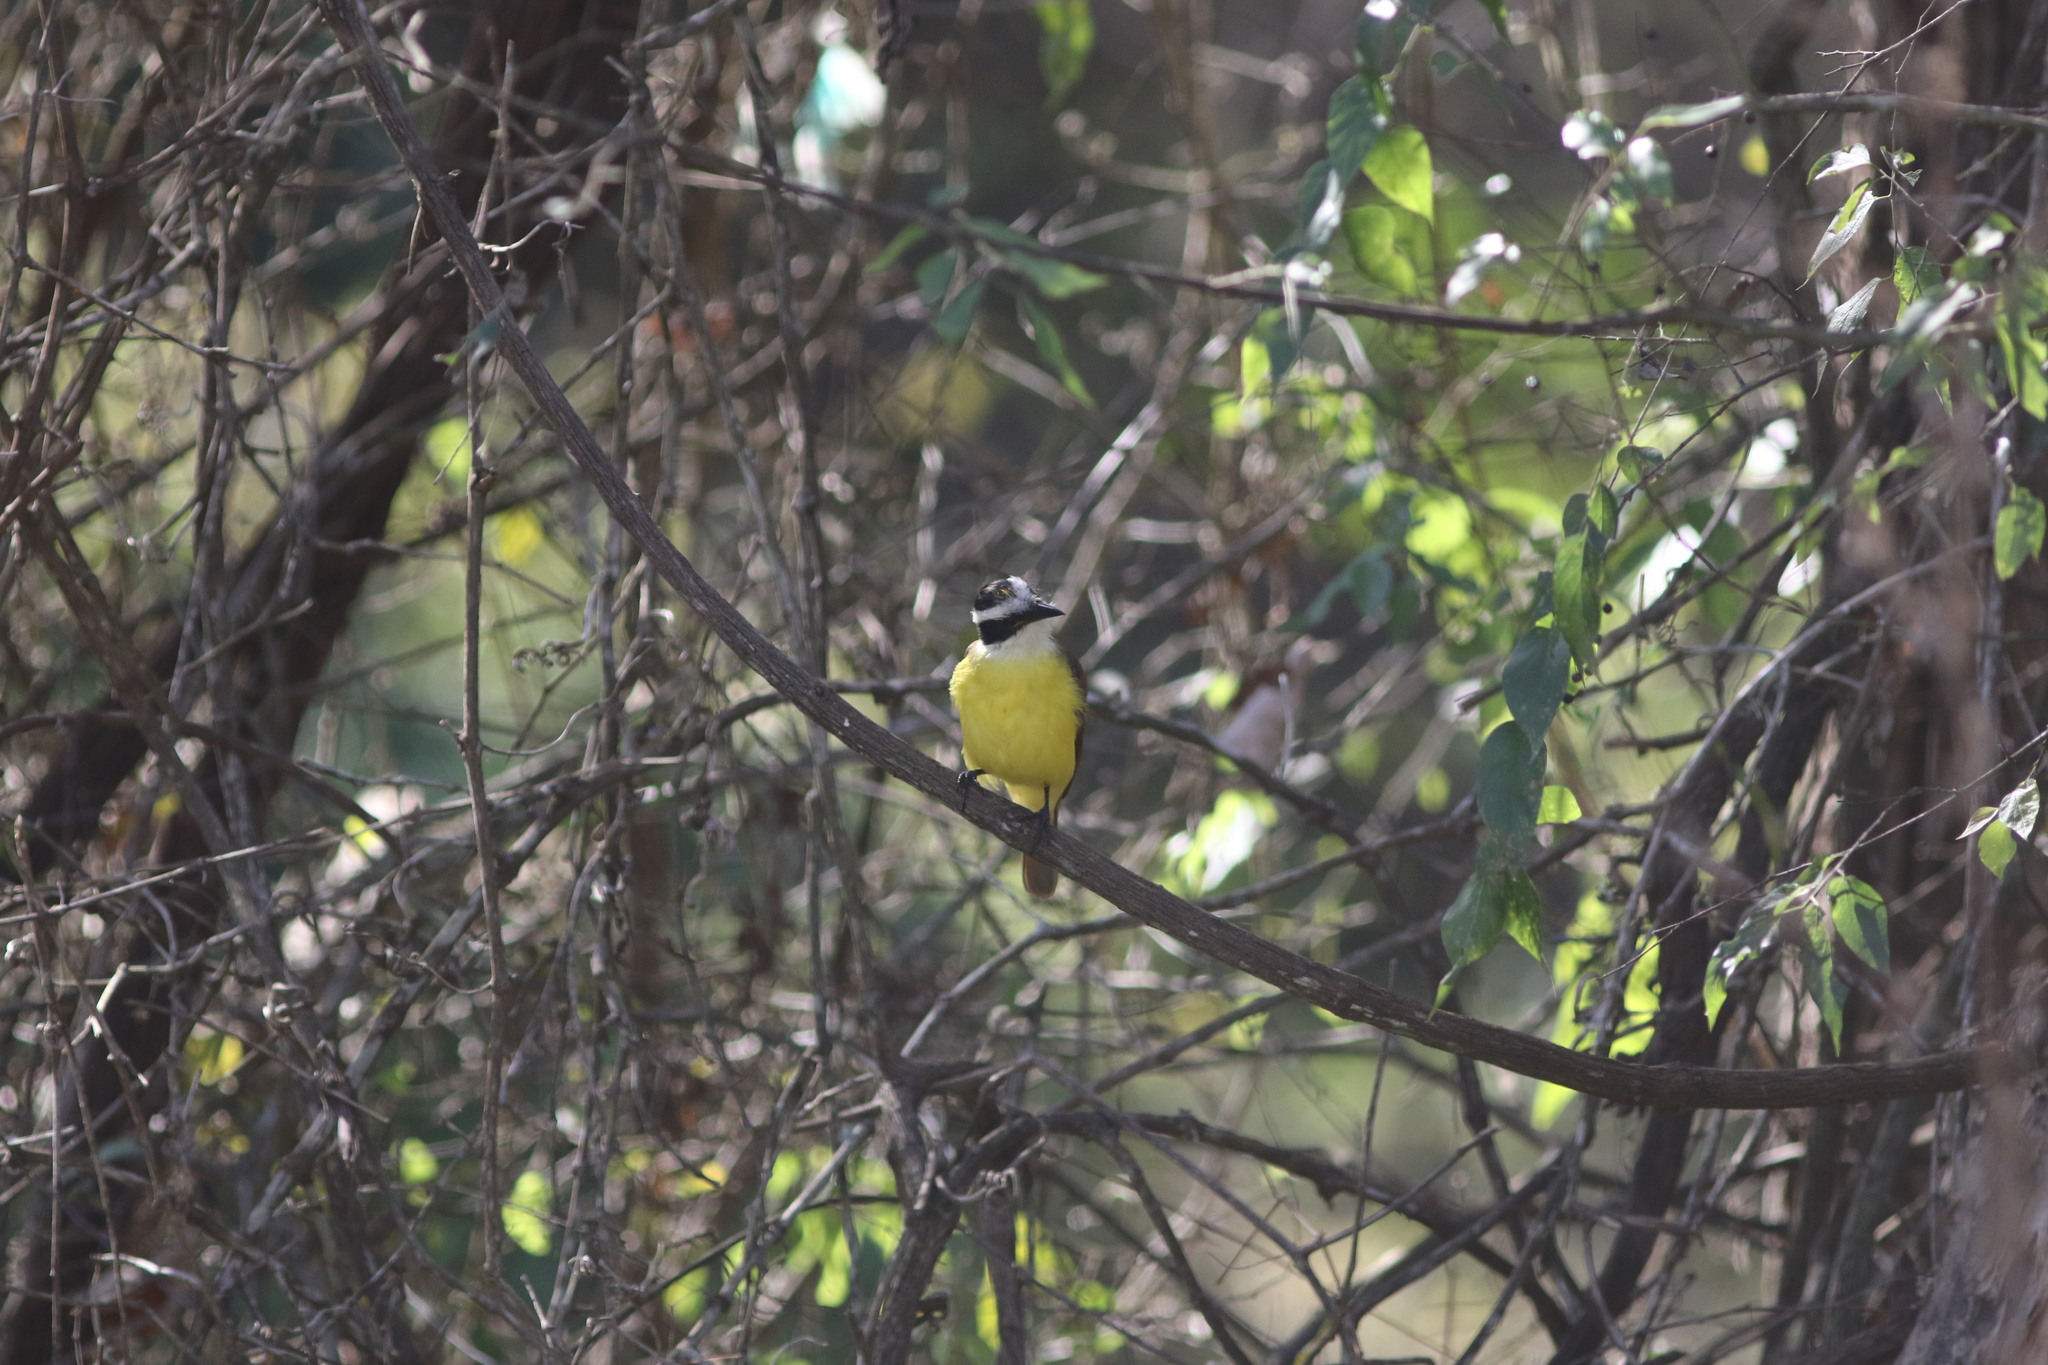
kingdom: Animalia
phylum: Chordata
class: Aves
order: Passeriformes
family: Tyrannidae
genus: Pitangus
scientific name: Pitangus sulphuratus
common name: Great kiskadee
